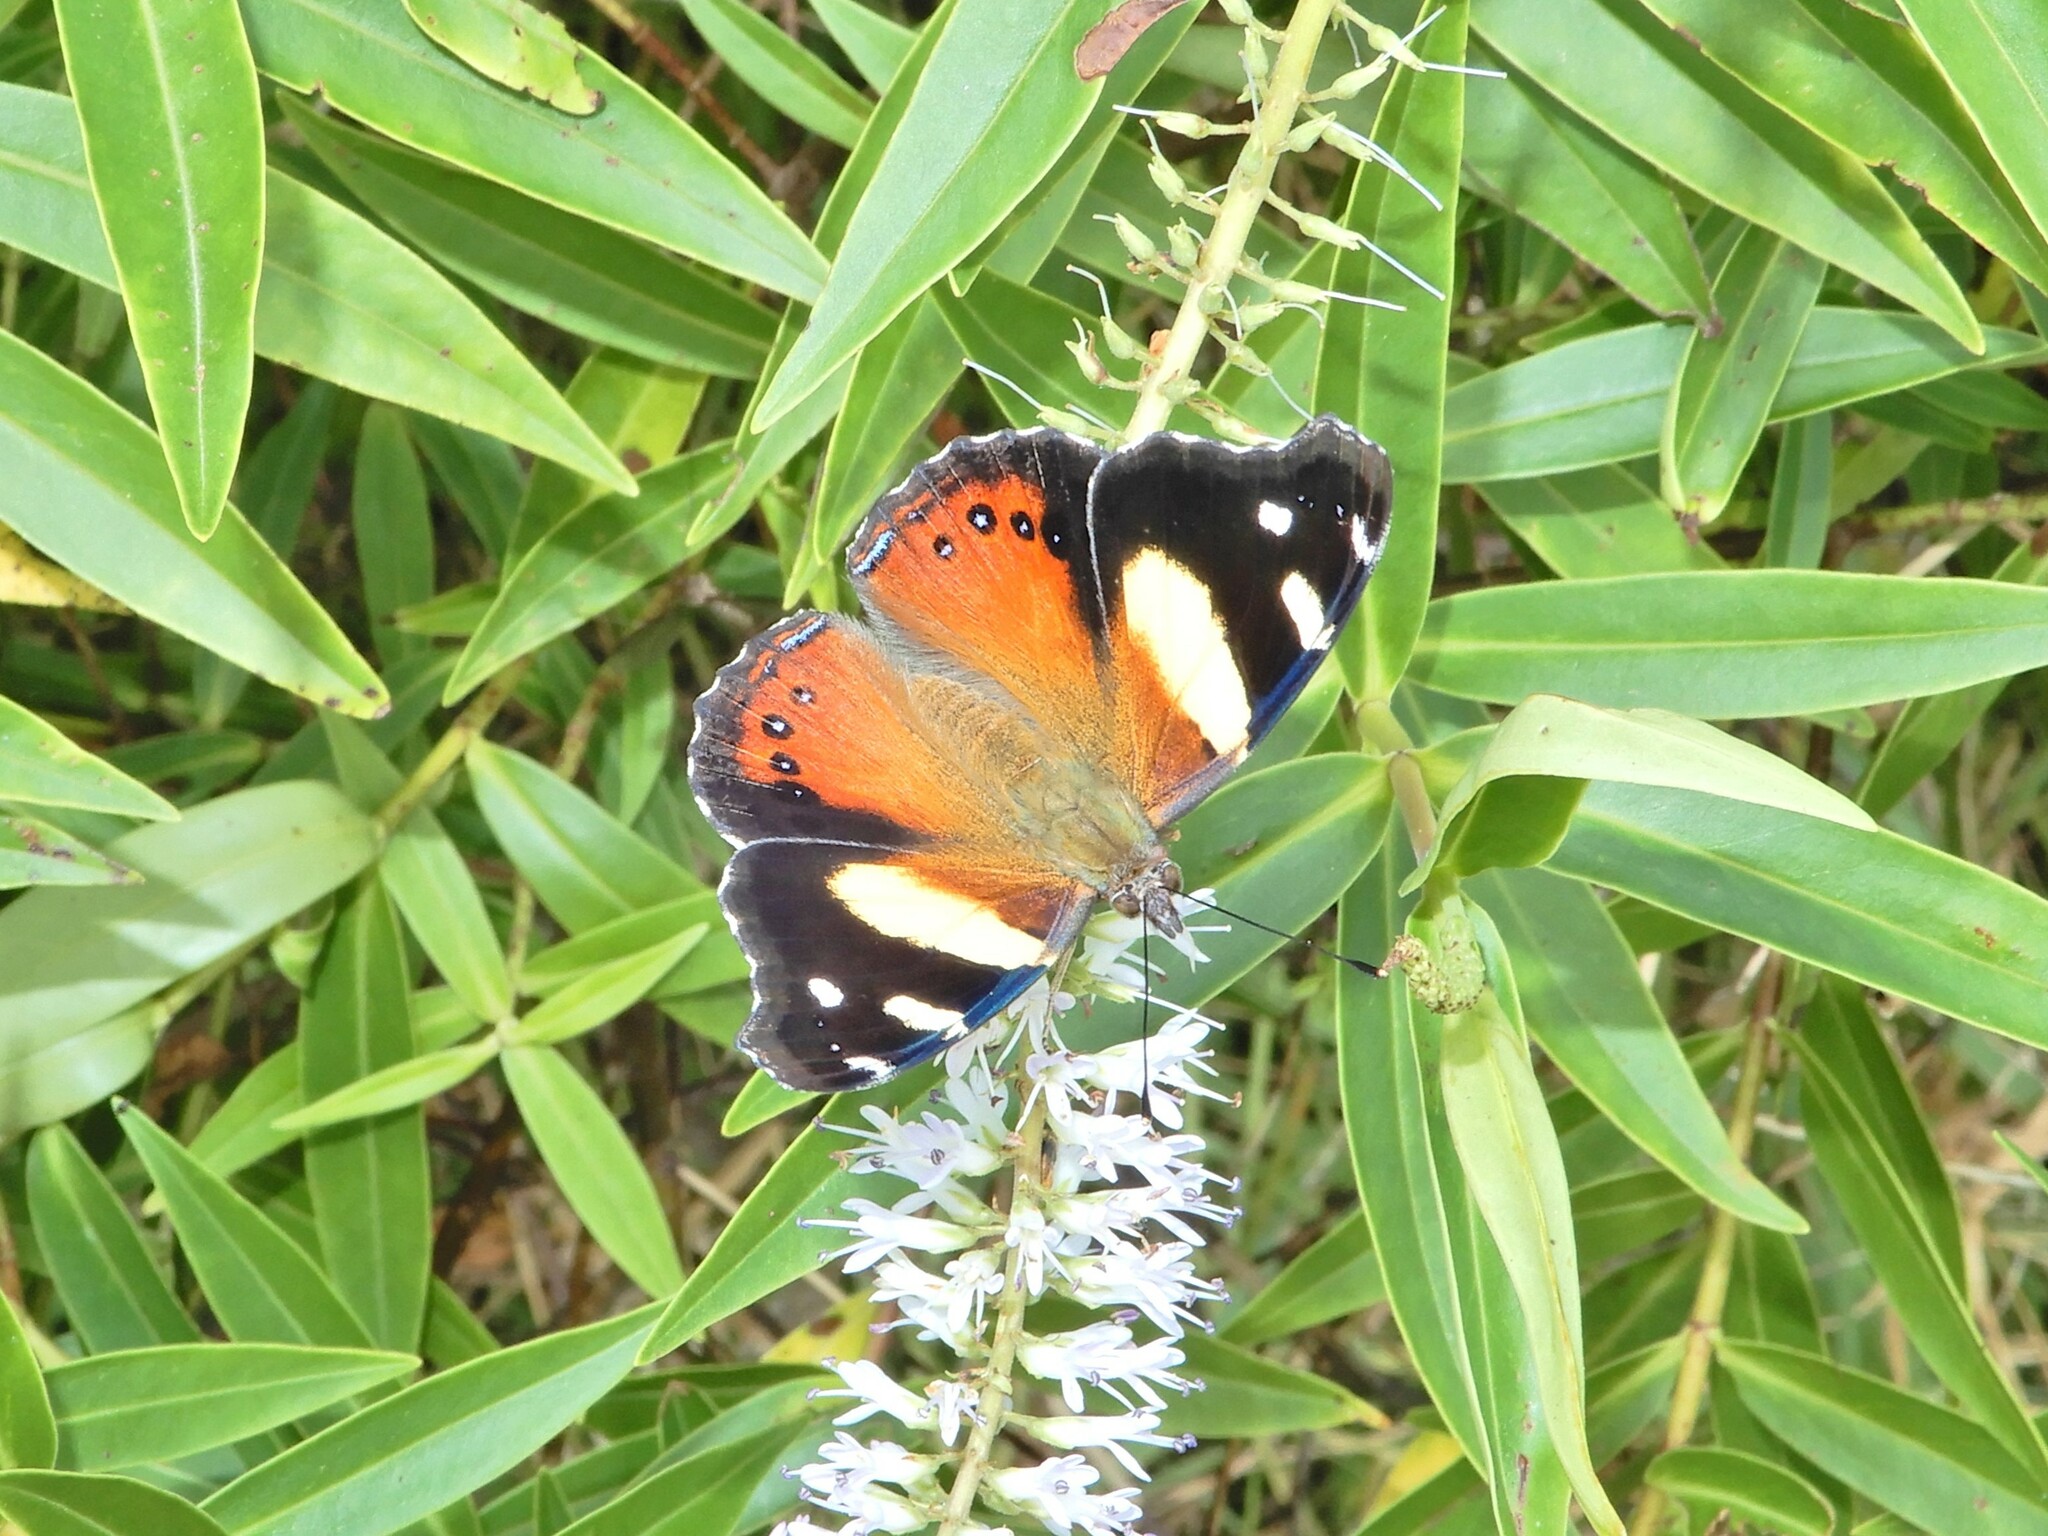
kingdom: Animalia
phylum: Arthropoda
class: Insecta
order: Lepidoptera
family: Nymphalidae
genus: Vanessa
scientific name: Vanessa itea
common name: Yellow admiral
